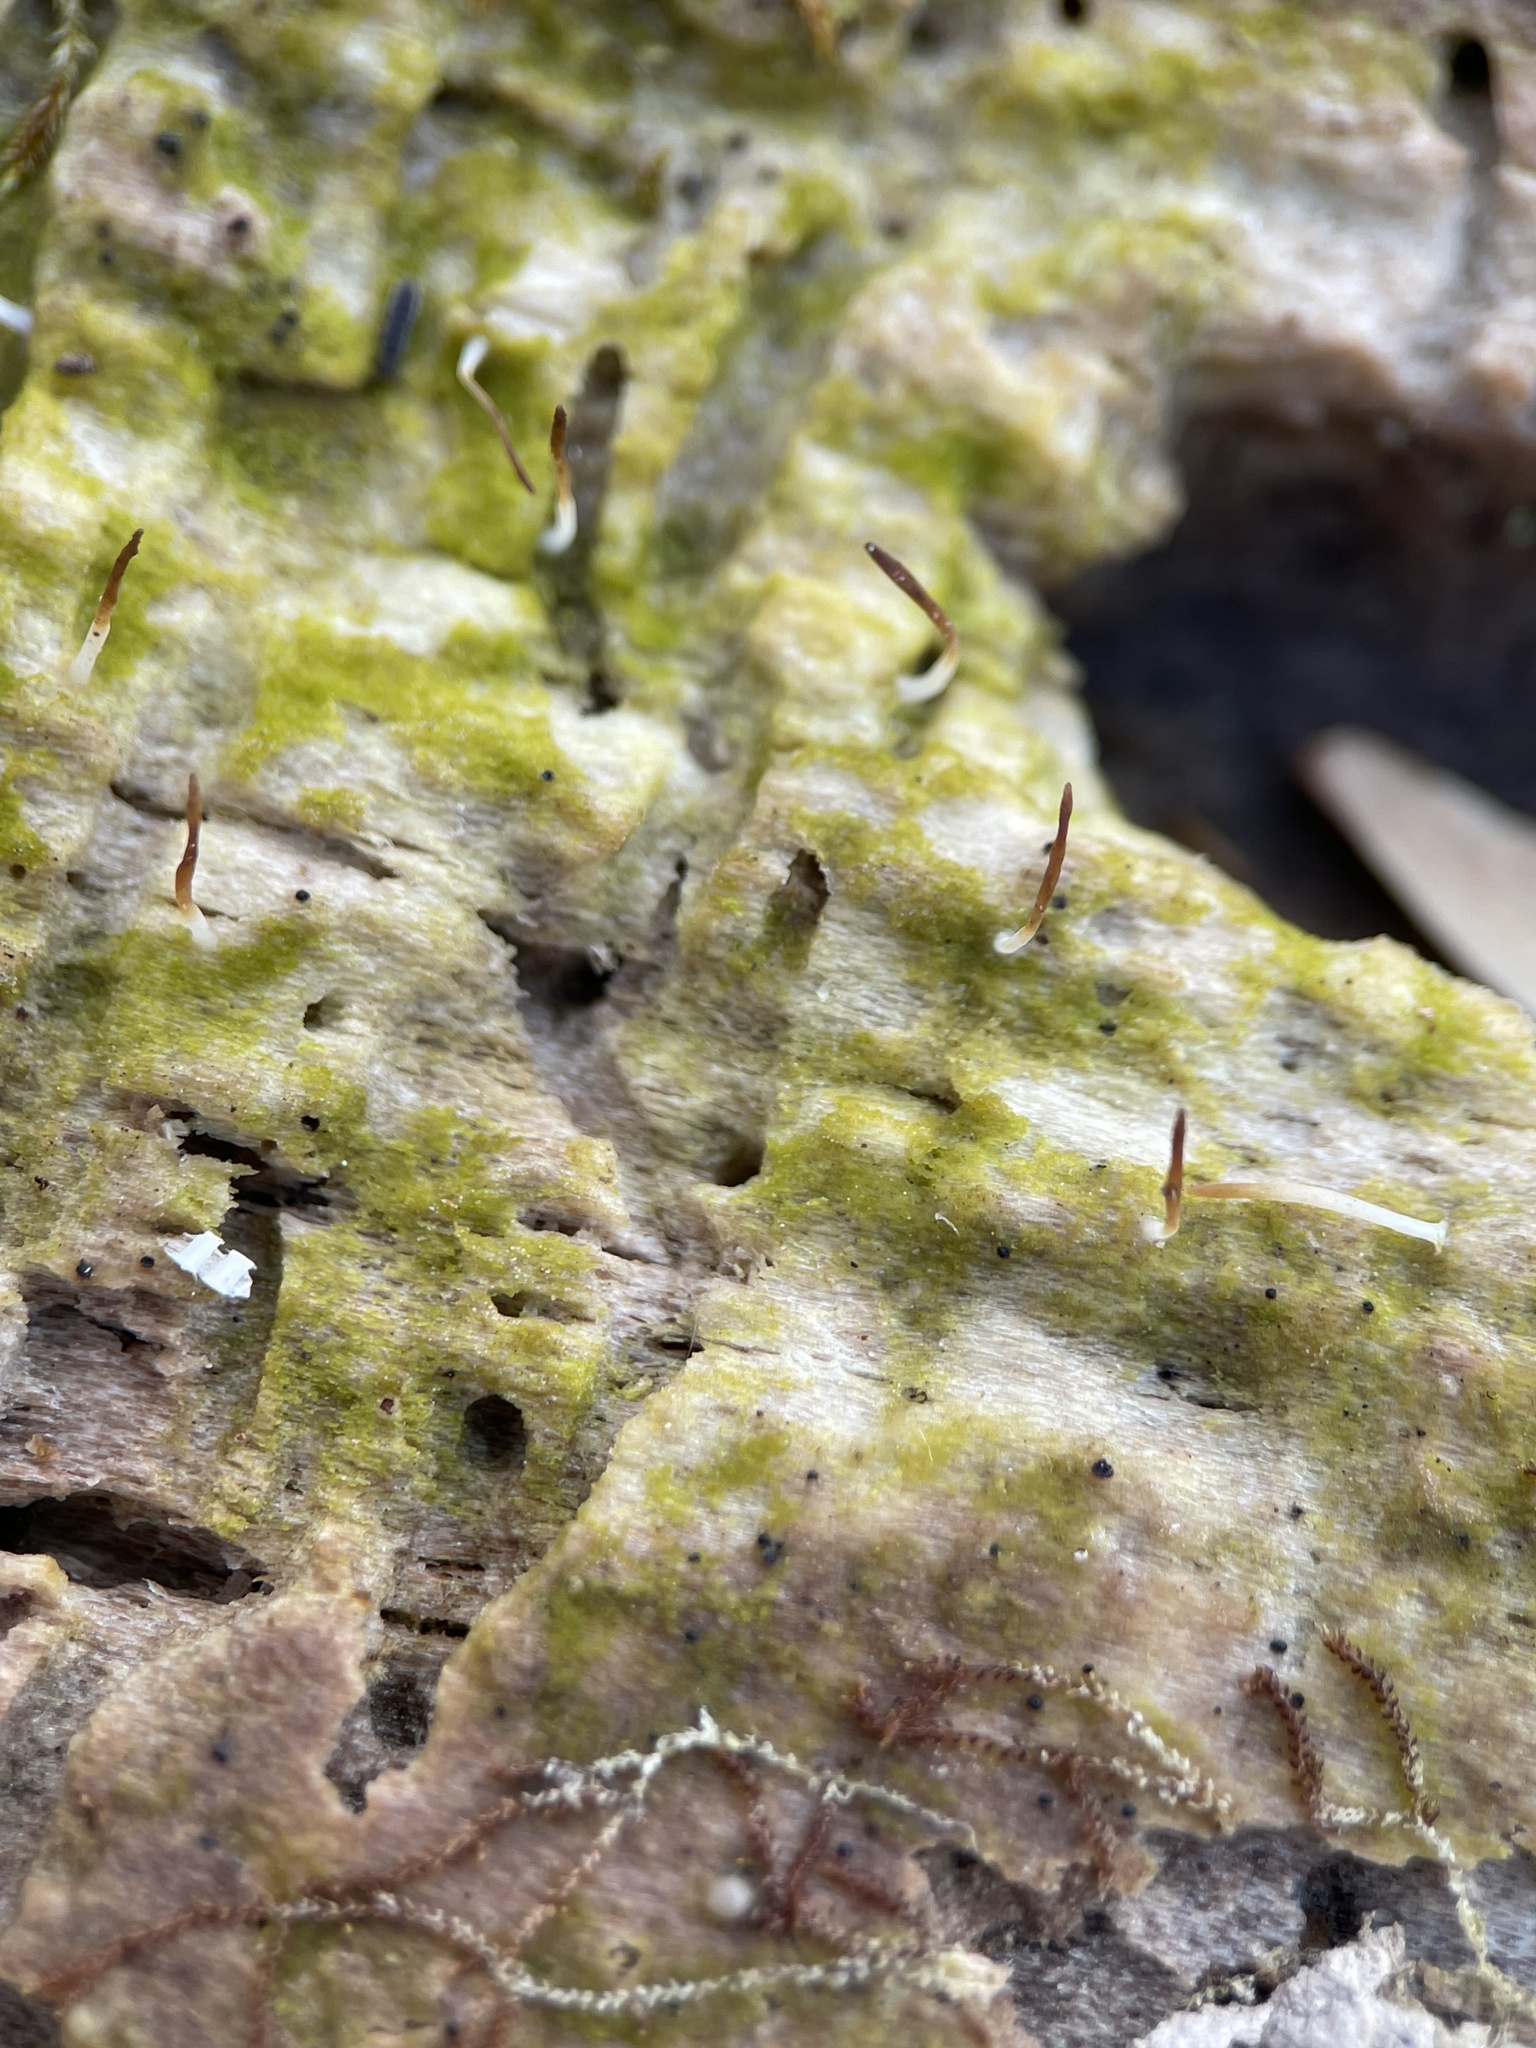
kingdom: Fungi
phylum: Basidiomycota
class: Agaricomycetes
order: Cantharellales
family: Hydnaceae
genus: Multiclavula
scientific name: Multiclavula mucida
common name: White green-algae coral
